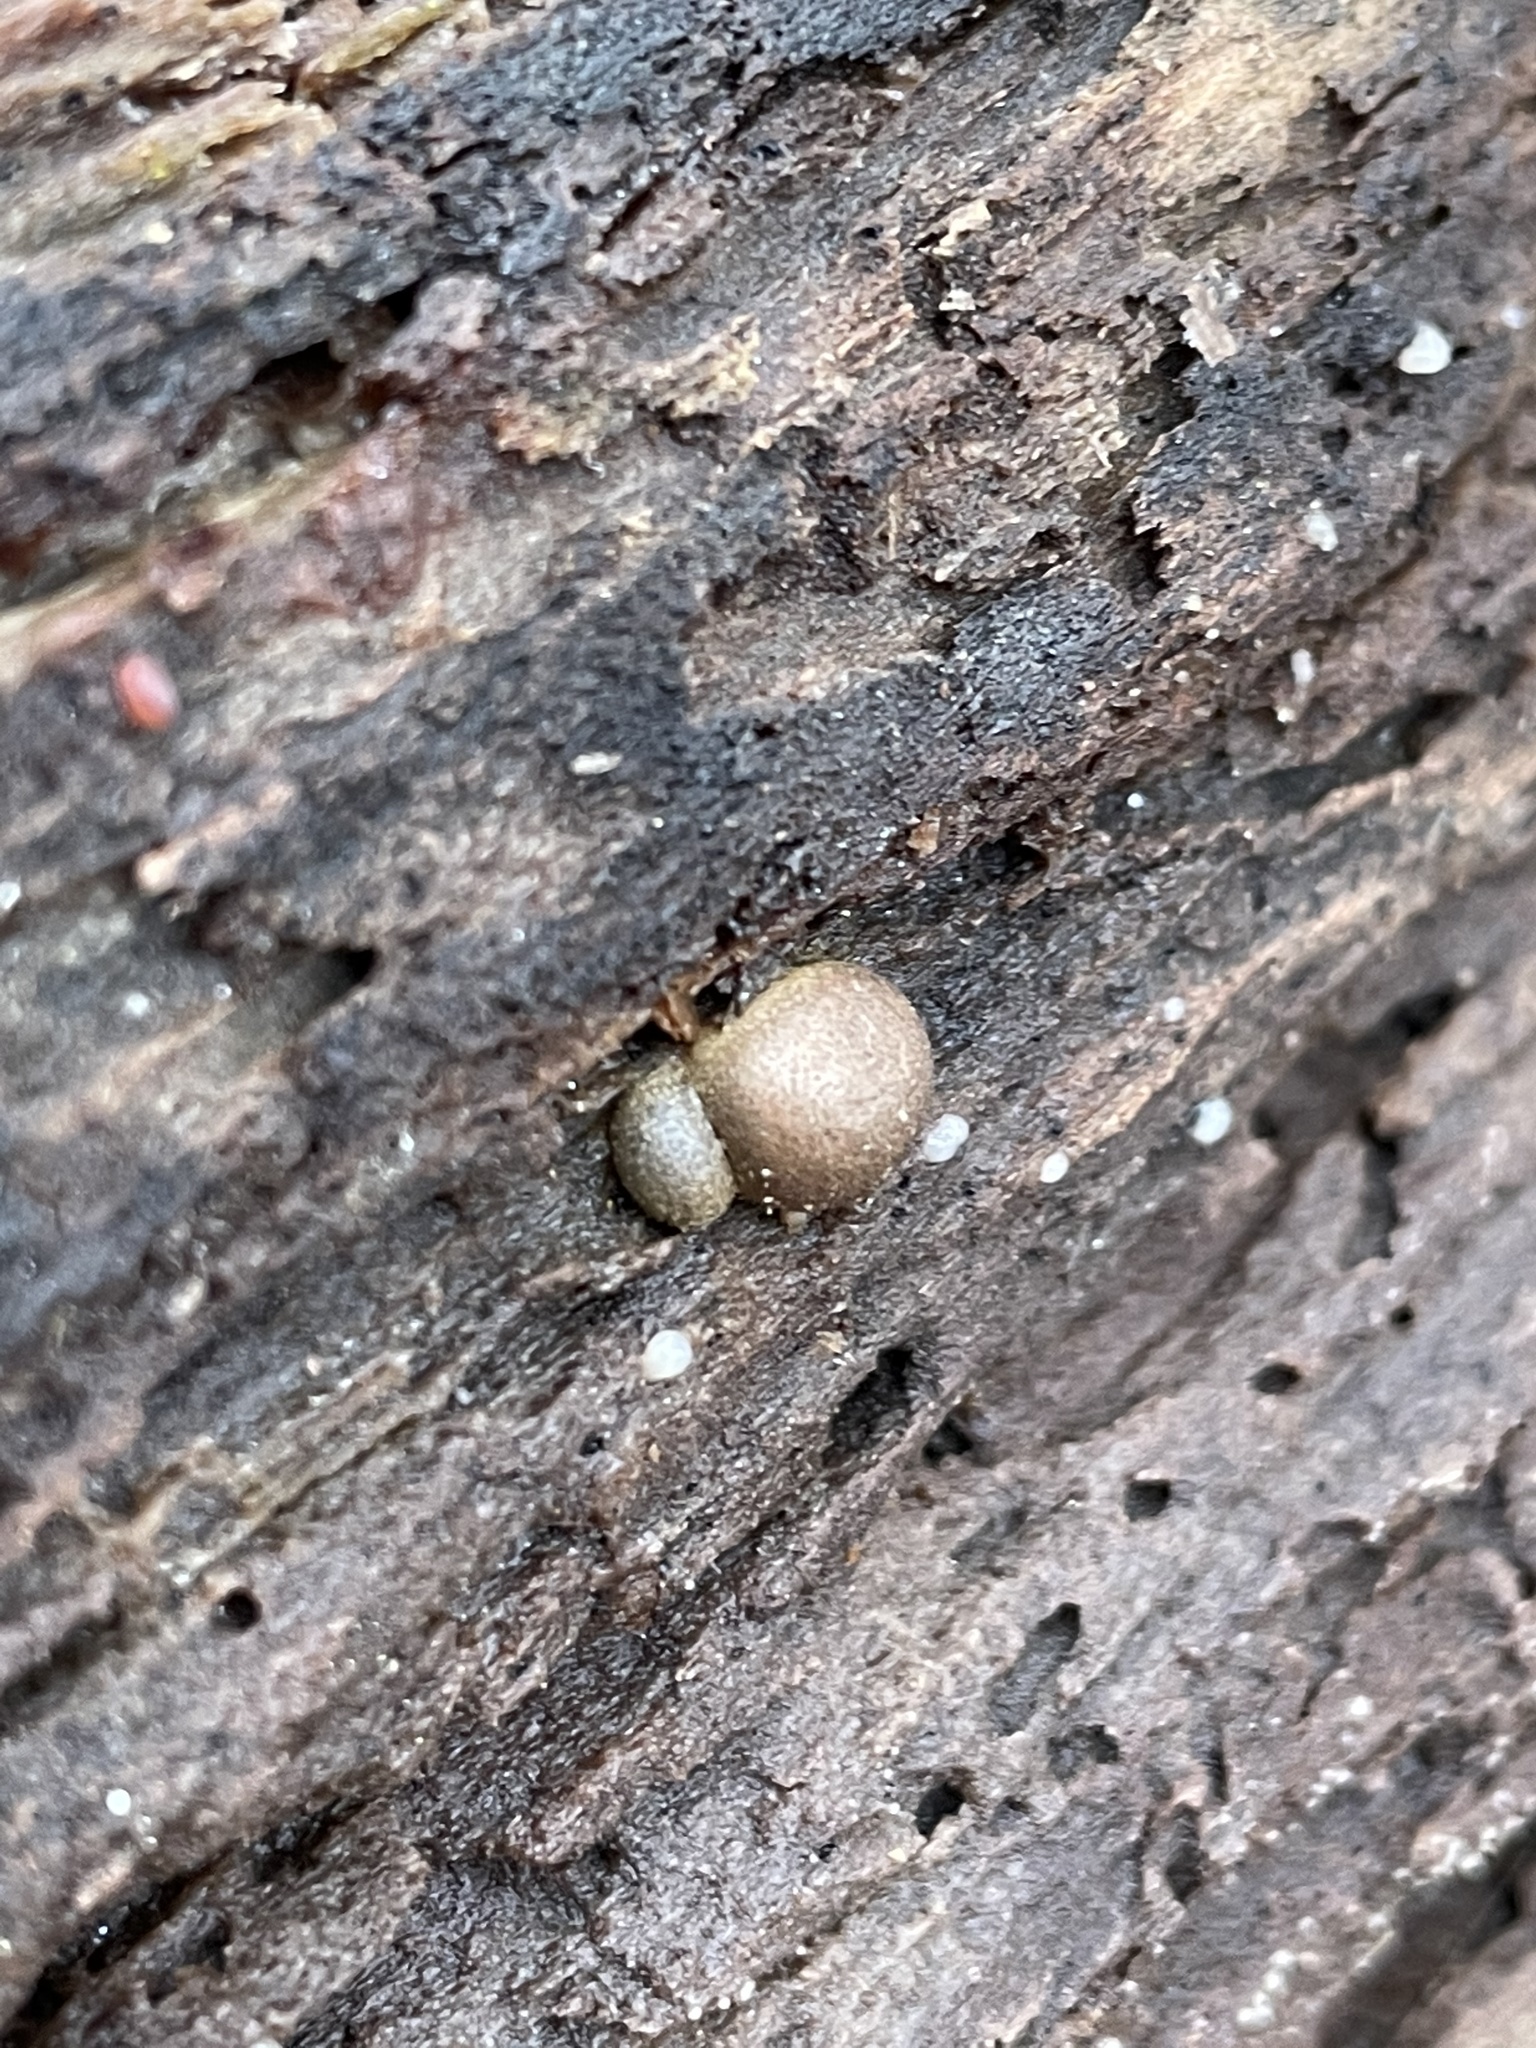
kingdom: Protozoa
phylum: Mycetozoa
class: Myxomycetes
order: Cribrariales
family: Tubiferaceae
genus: Lycogala
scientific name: Lycogala epidendrum
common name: Wolf's milk
